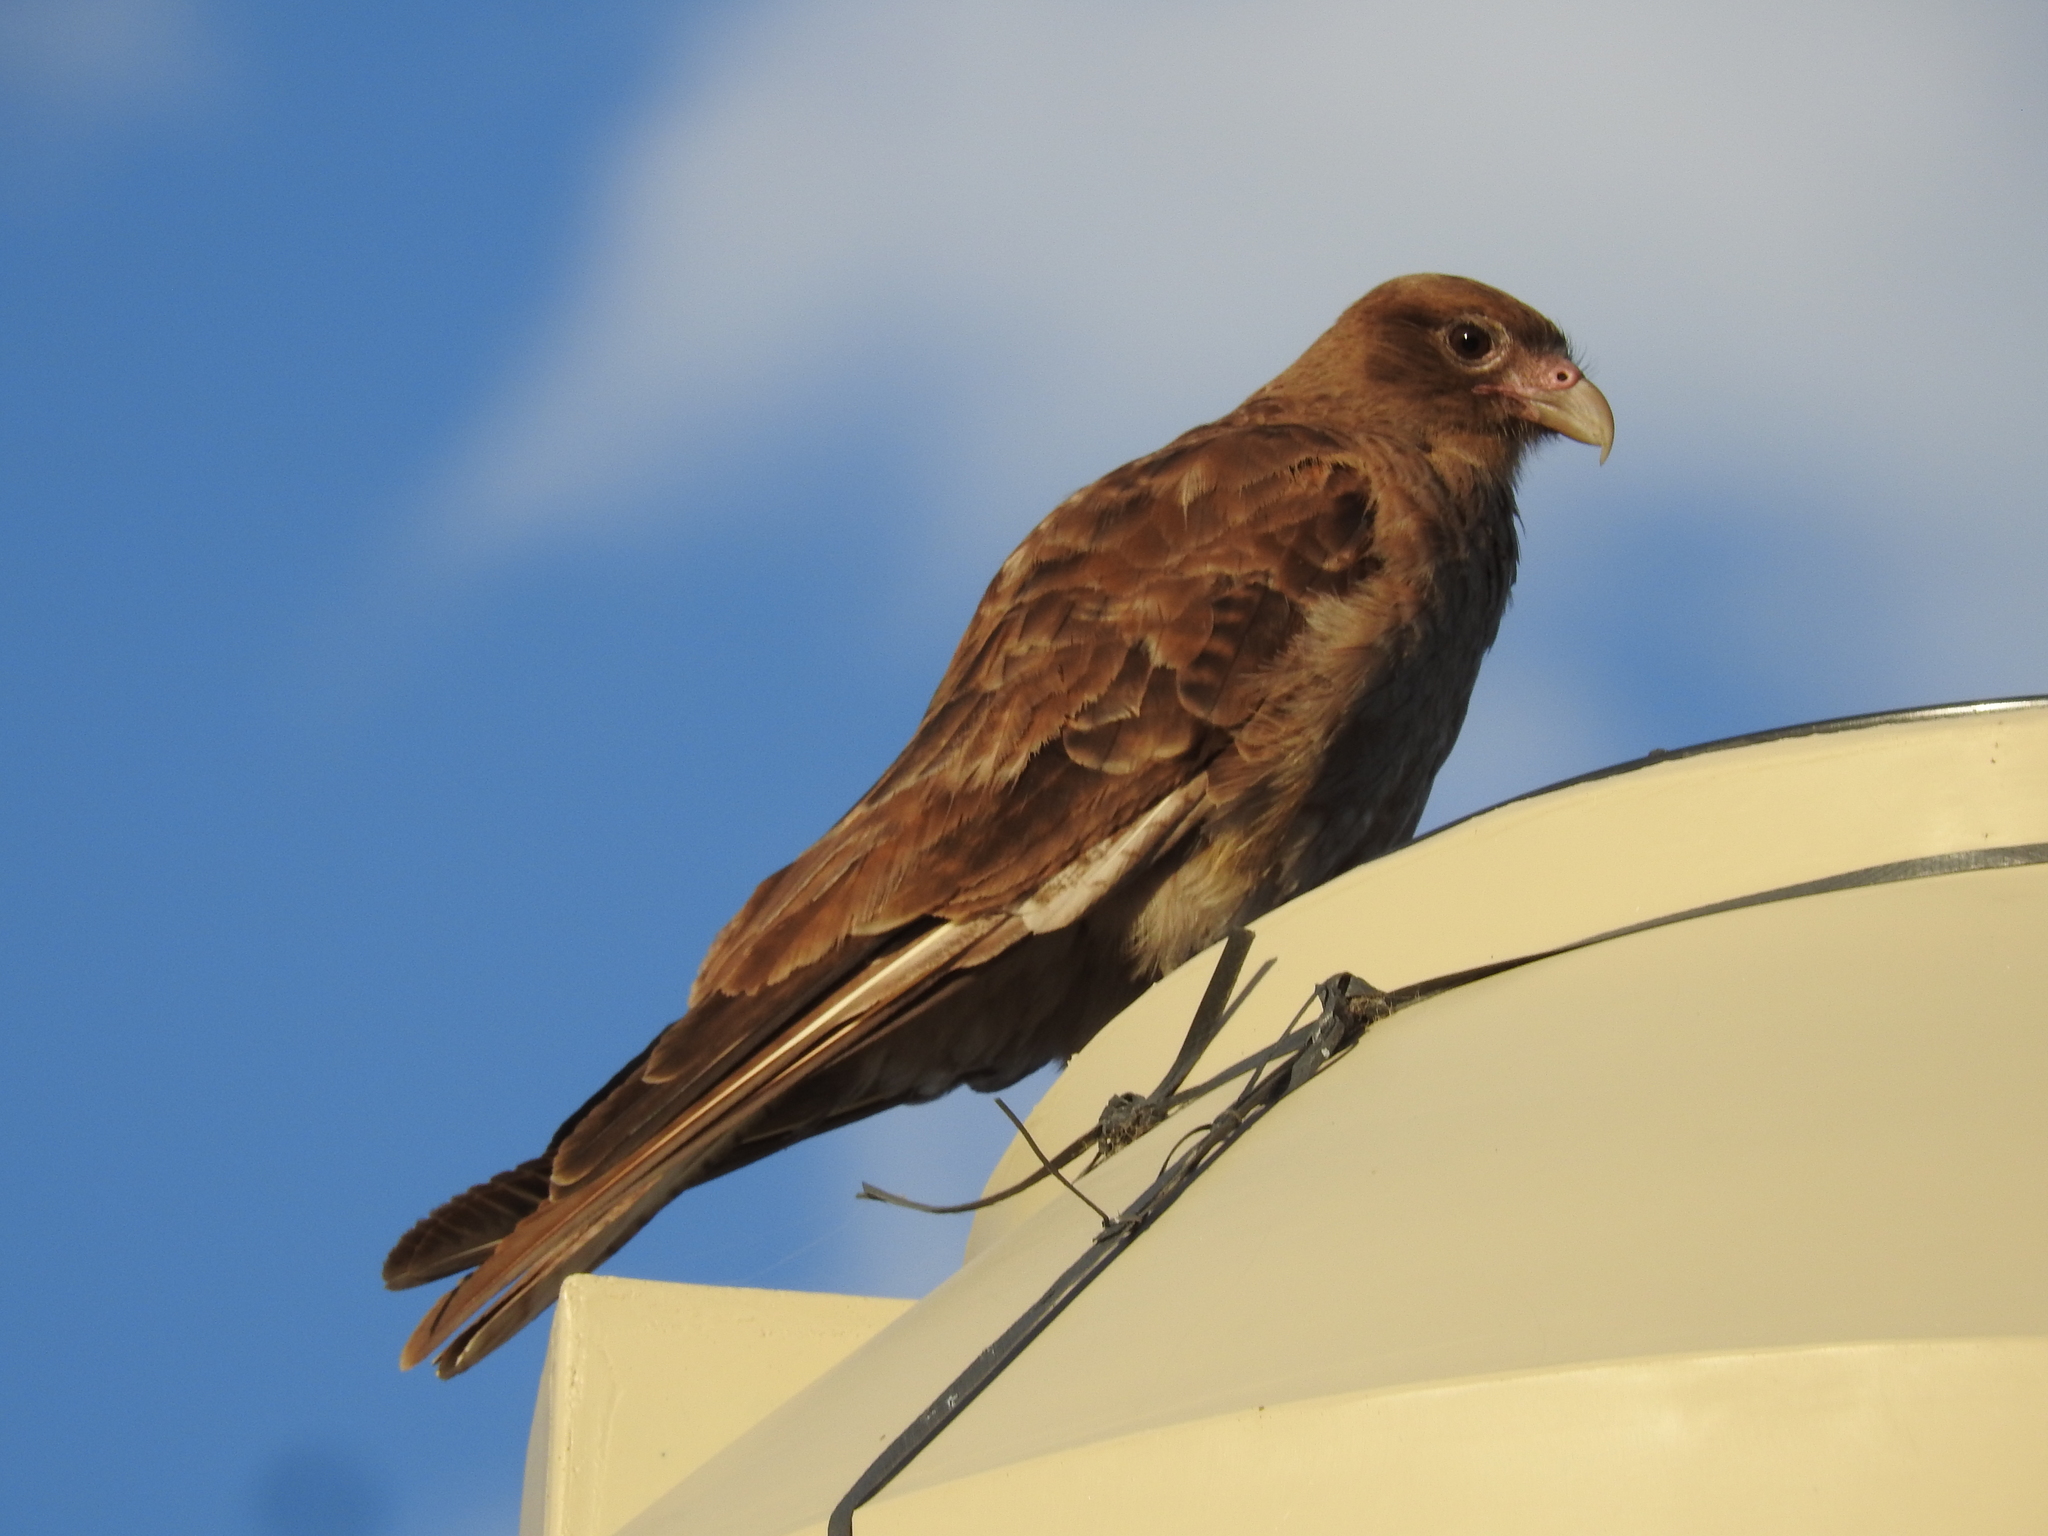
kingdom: Animalia
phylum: Chordata
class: Aves
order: Falconiformes
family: Falconidae
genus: Daptrius
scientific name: Daptrius
